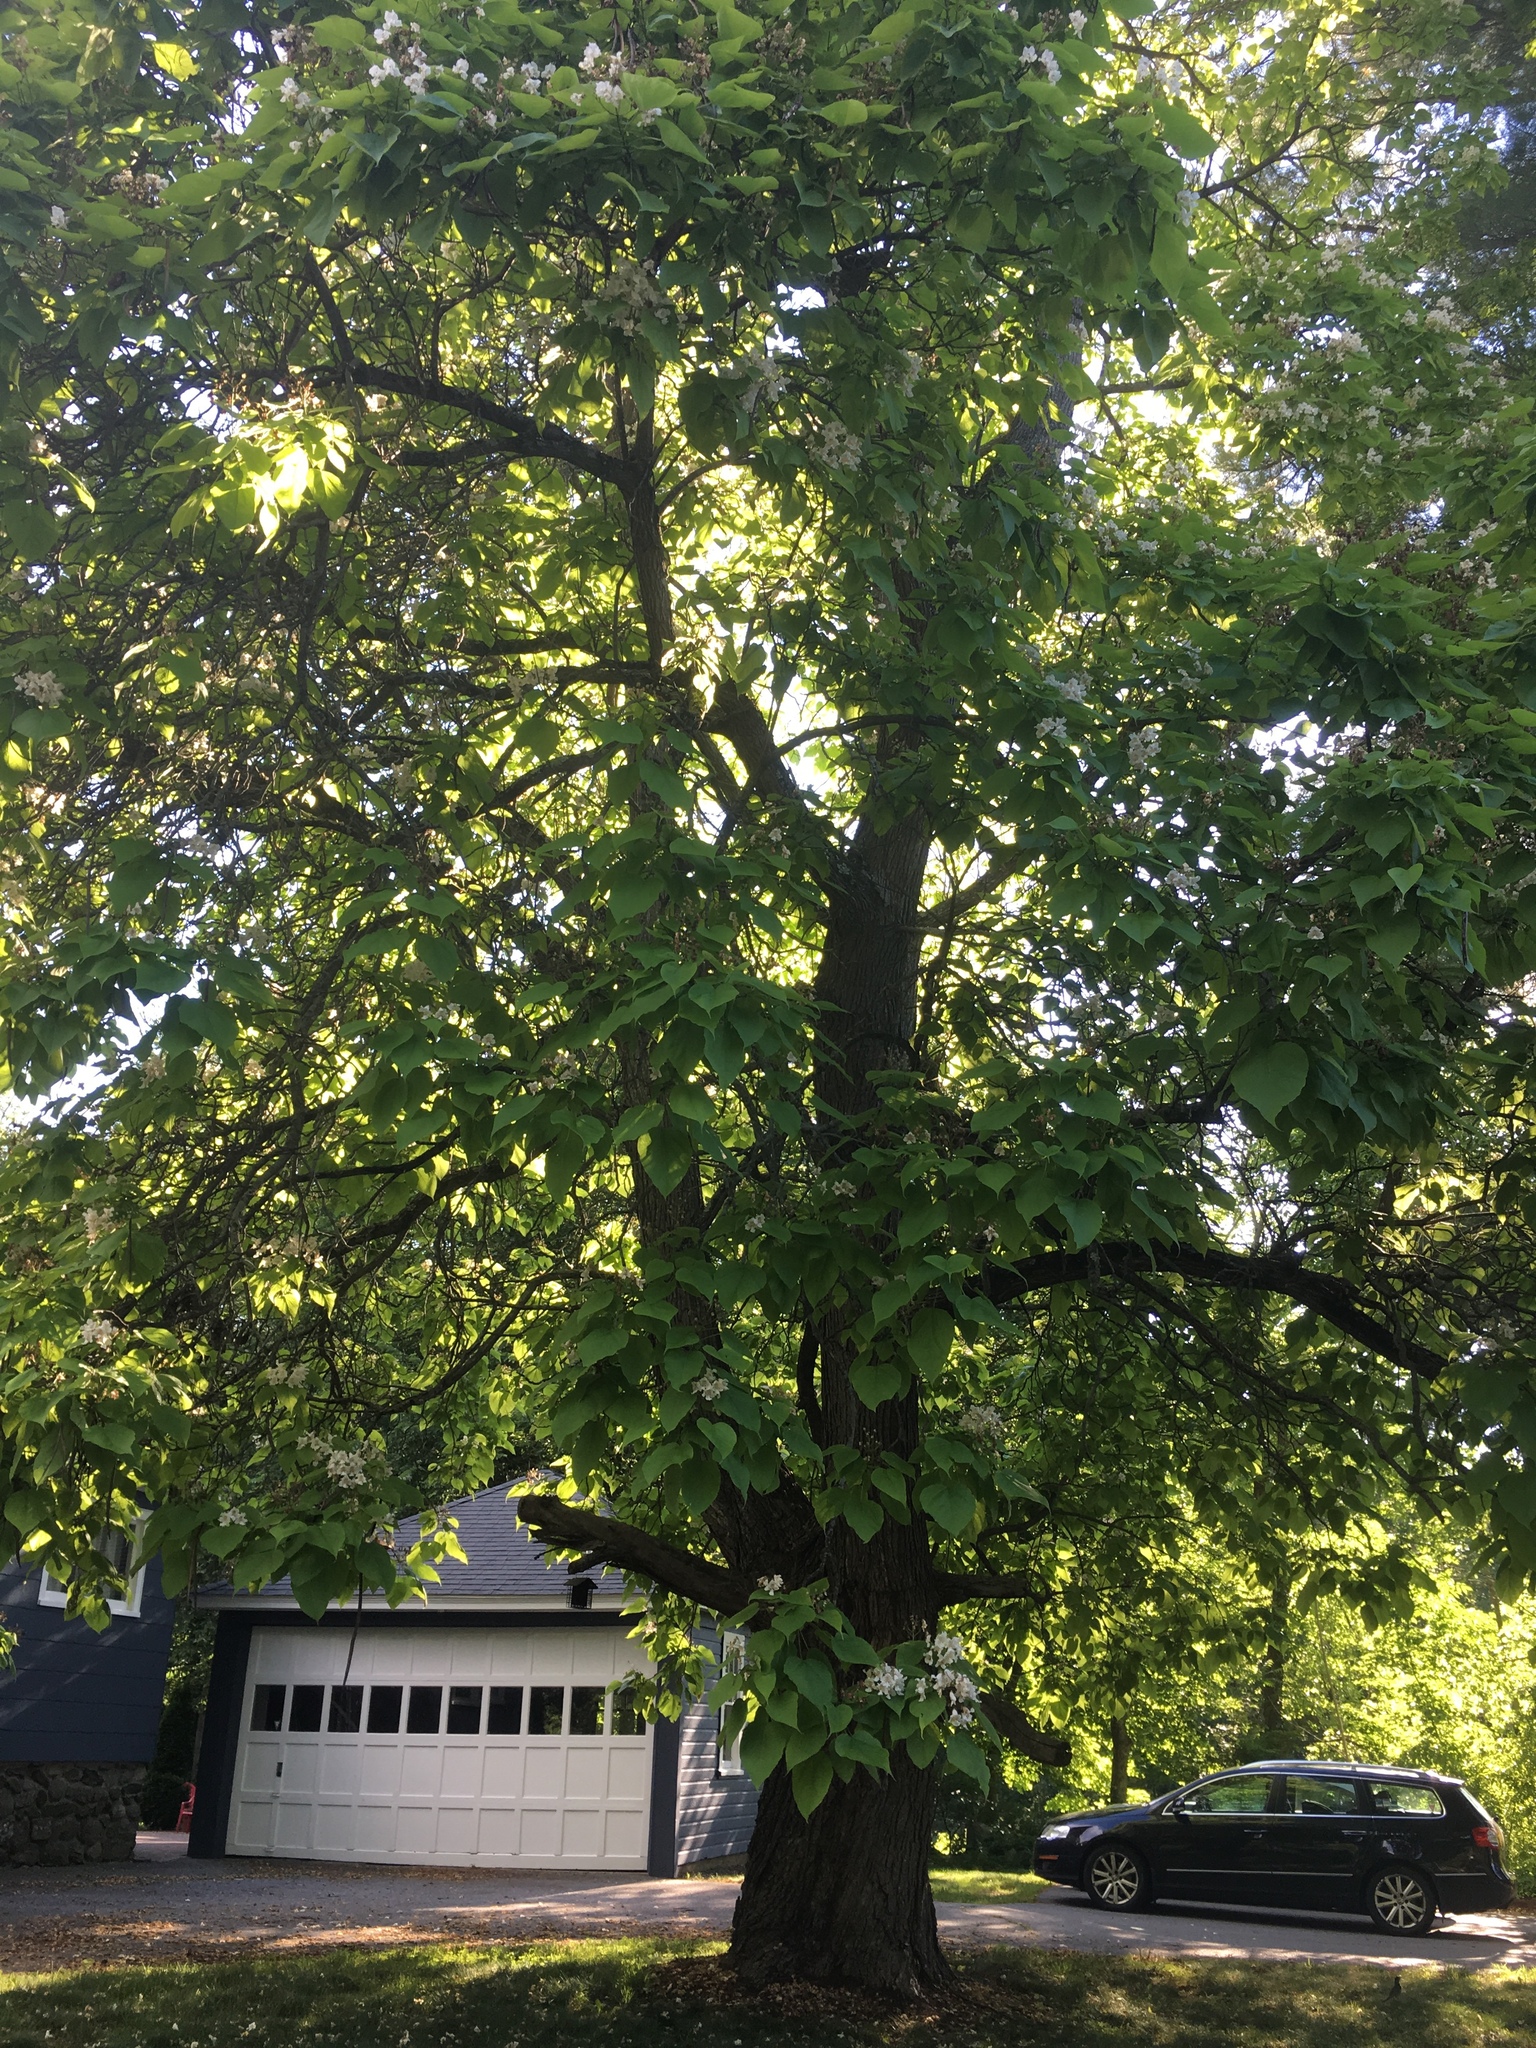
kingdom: Plantae
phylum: Tracheophyta
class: Magnoliopsida
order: Lamiales
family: Bignoniaceae
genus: Catalpa
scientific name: Catalpa speciosa
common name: Northern catalpa
